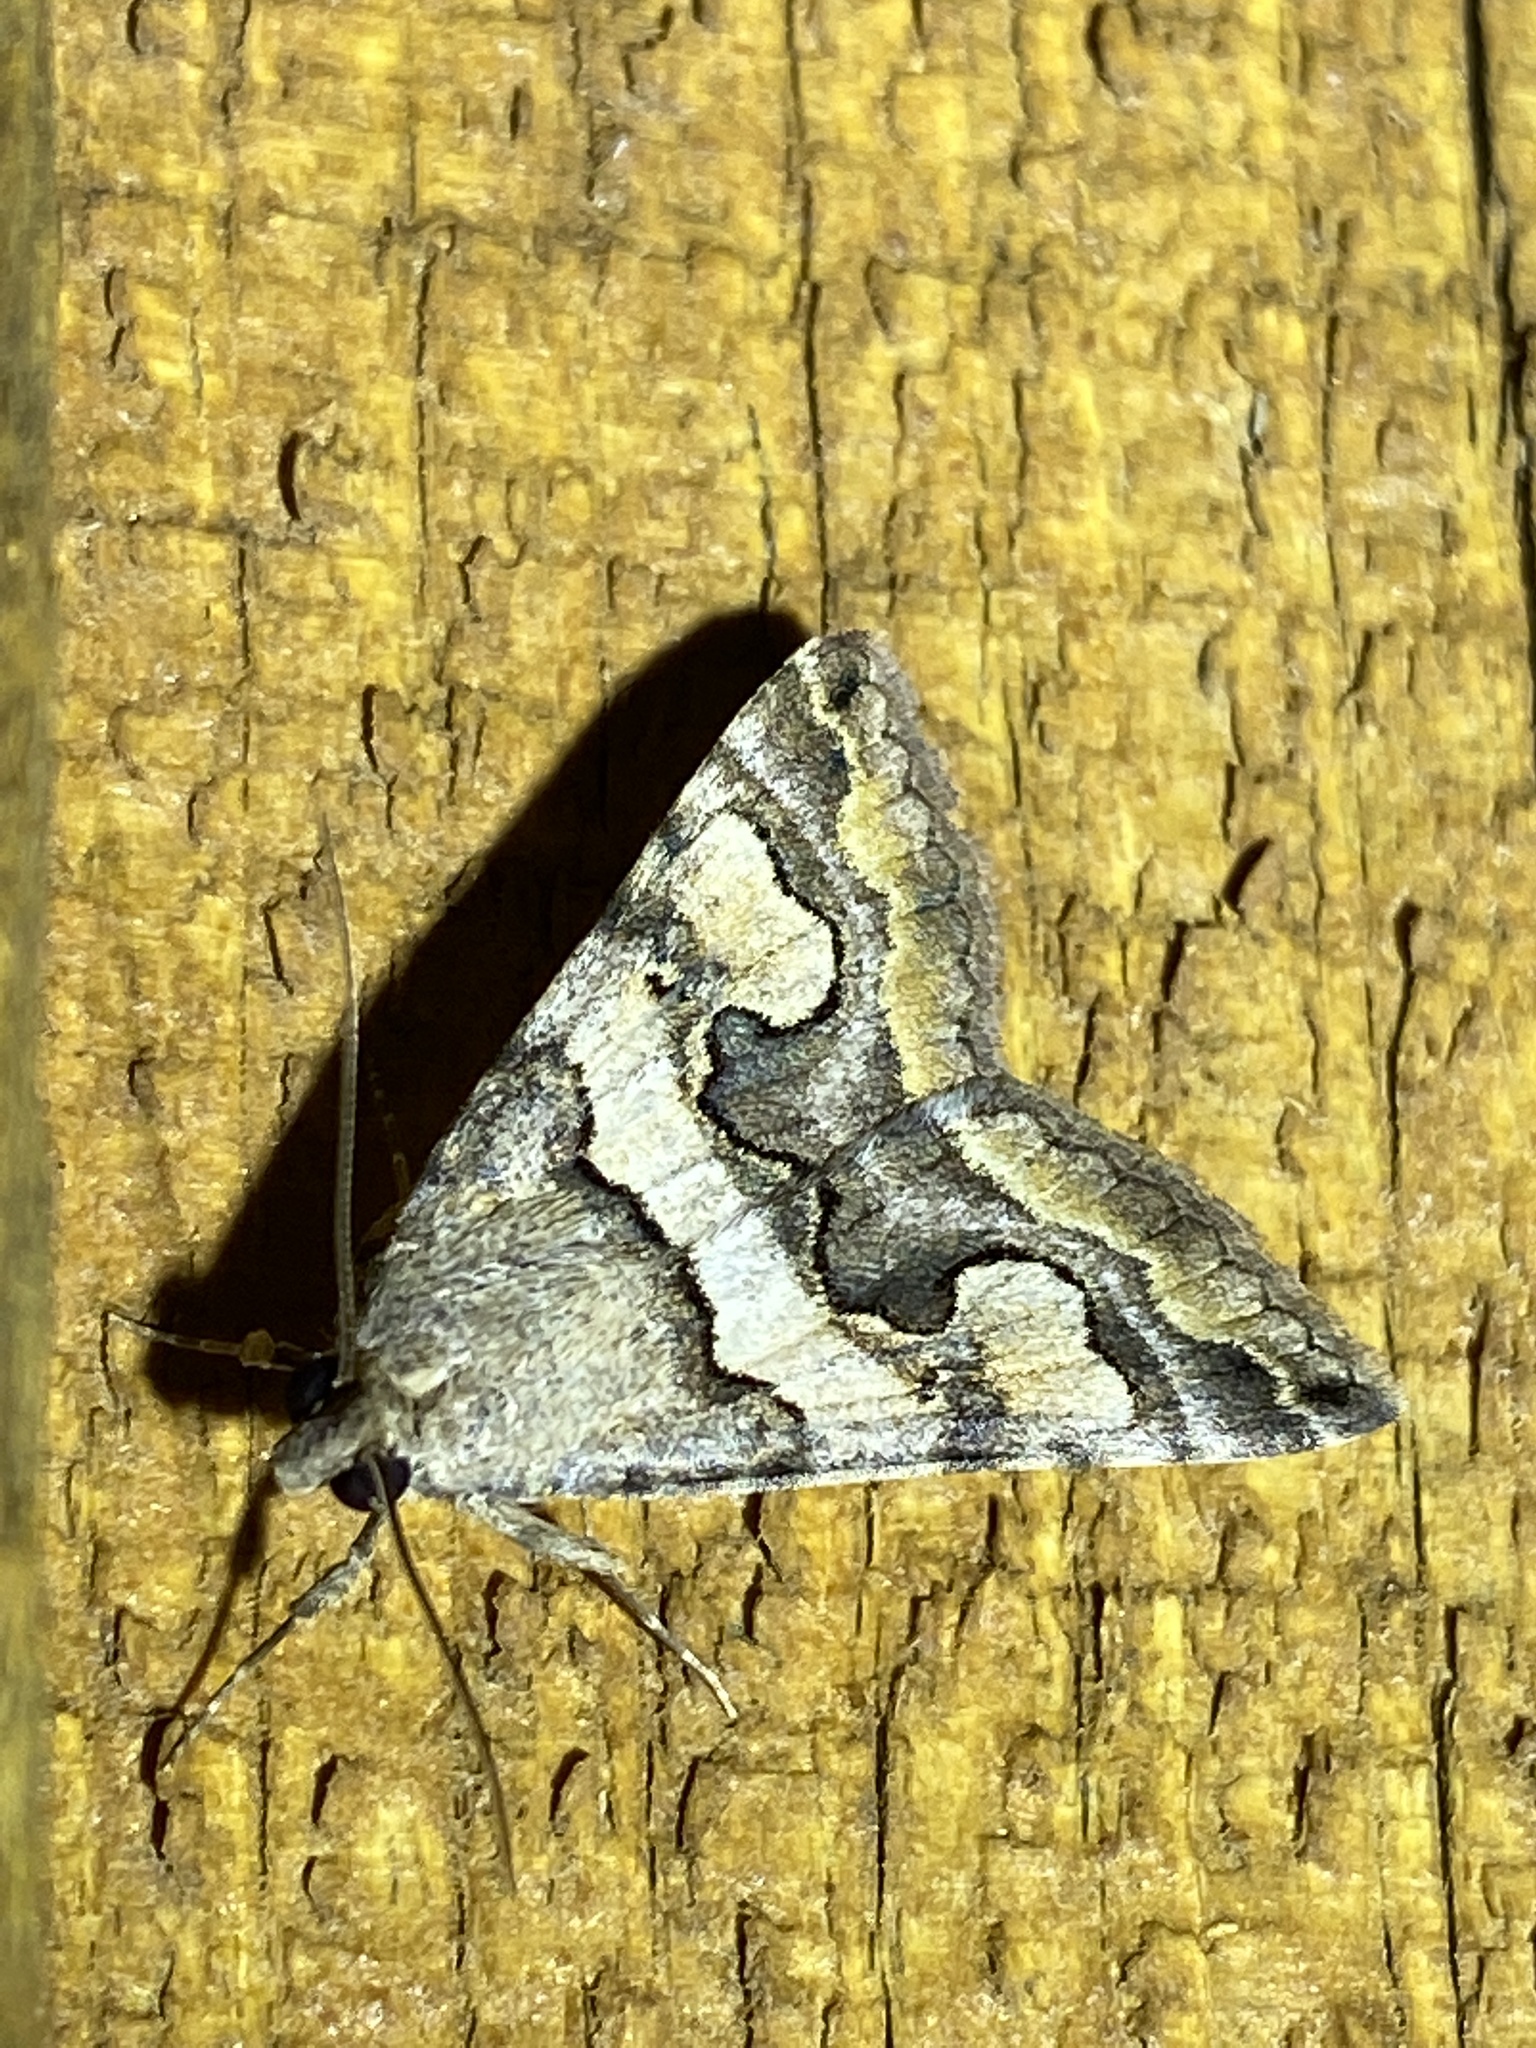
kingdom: Animalia
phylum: Arthropoda
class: Insecta
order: Lepidoptera
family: Erebidae
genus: Bulia
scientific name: Bulia deducta
